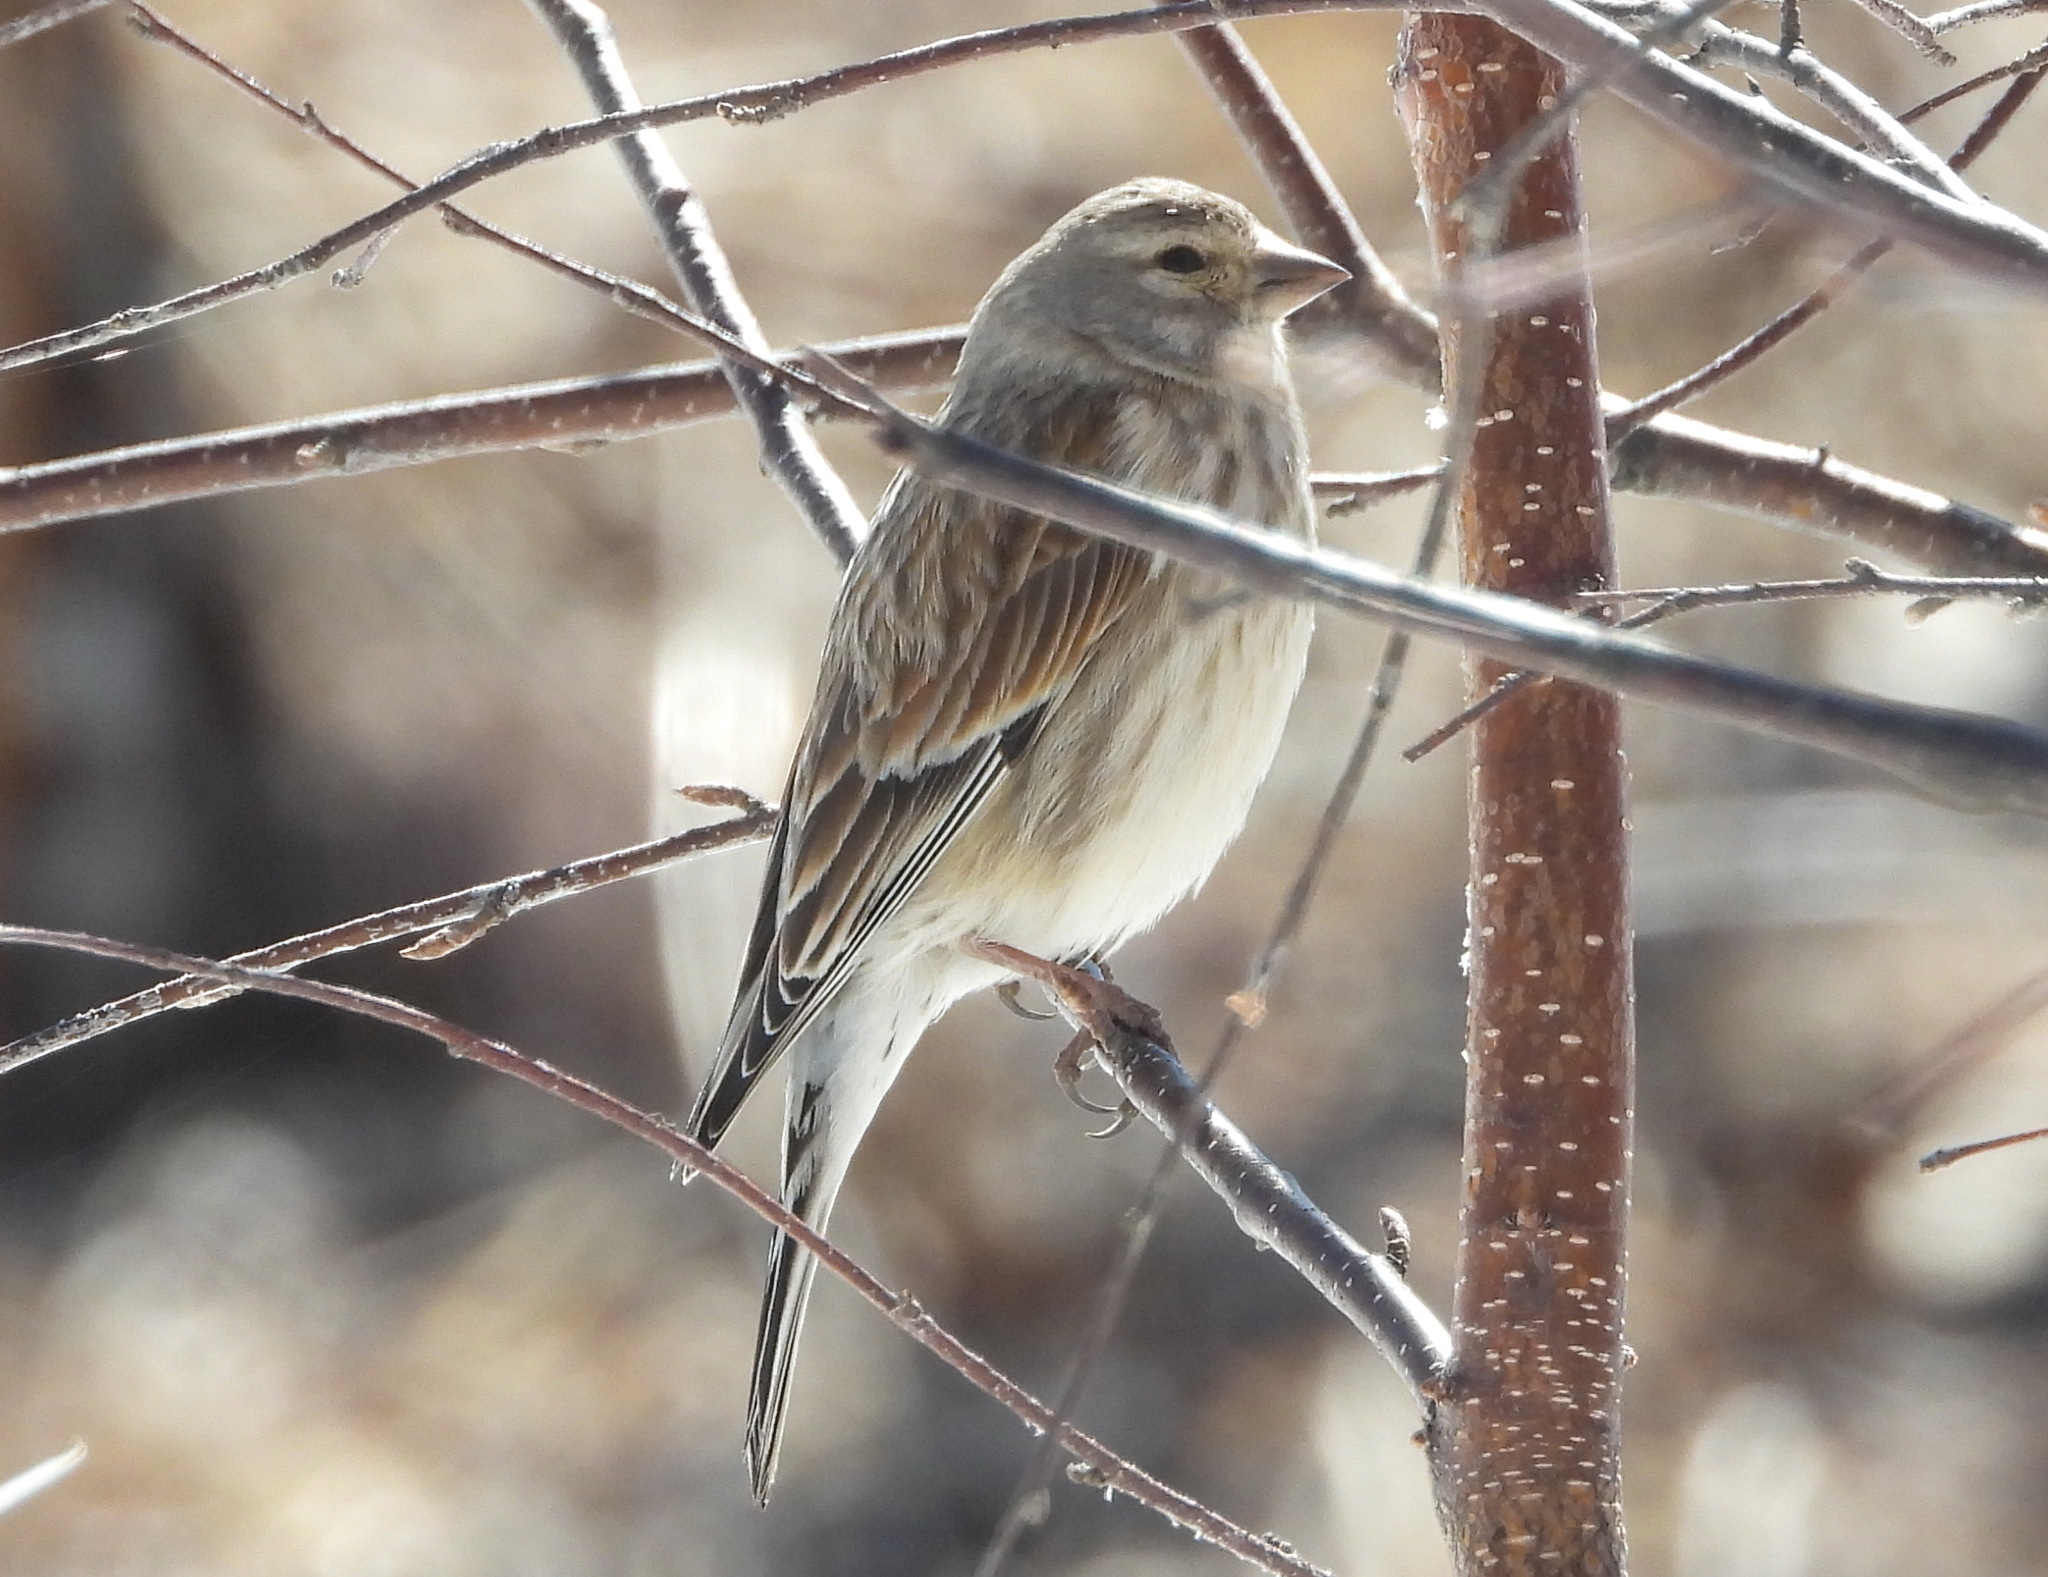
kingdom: Animalia
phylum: Chordata
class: Aves
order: Passeriformes
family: Fringillidae
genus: Linaria
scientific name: Linaria cannabina
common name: Common linnet
